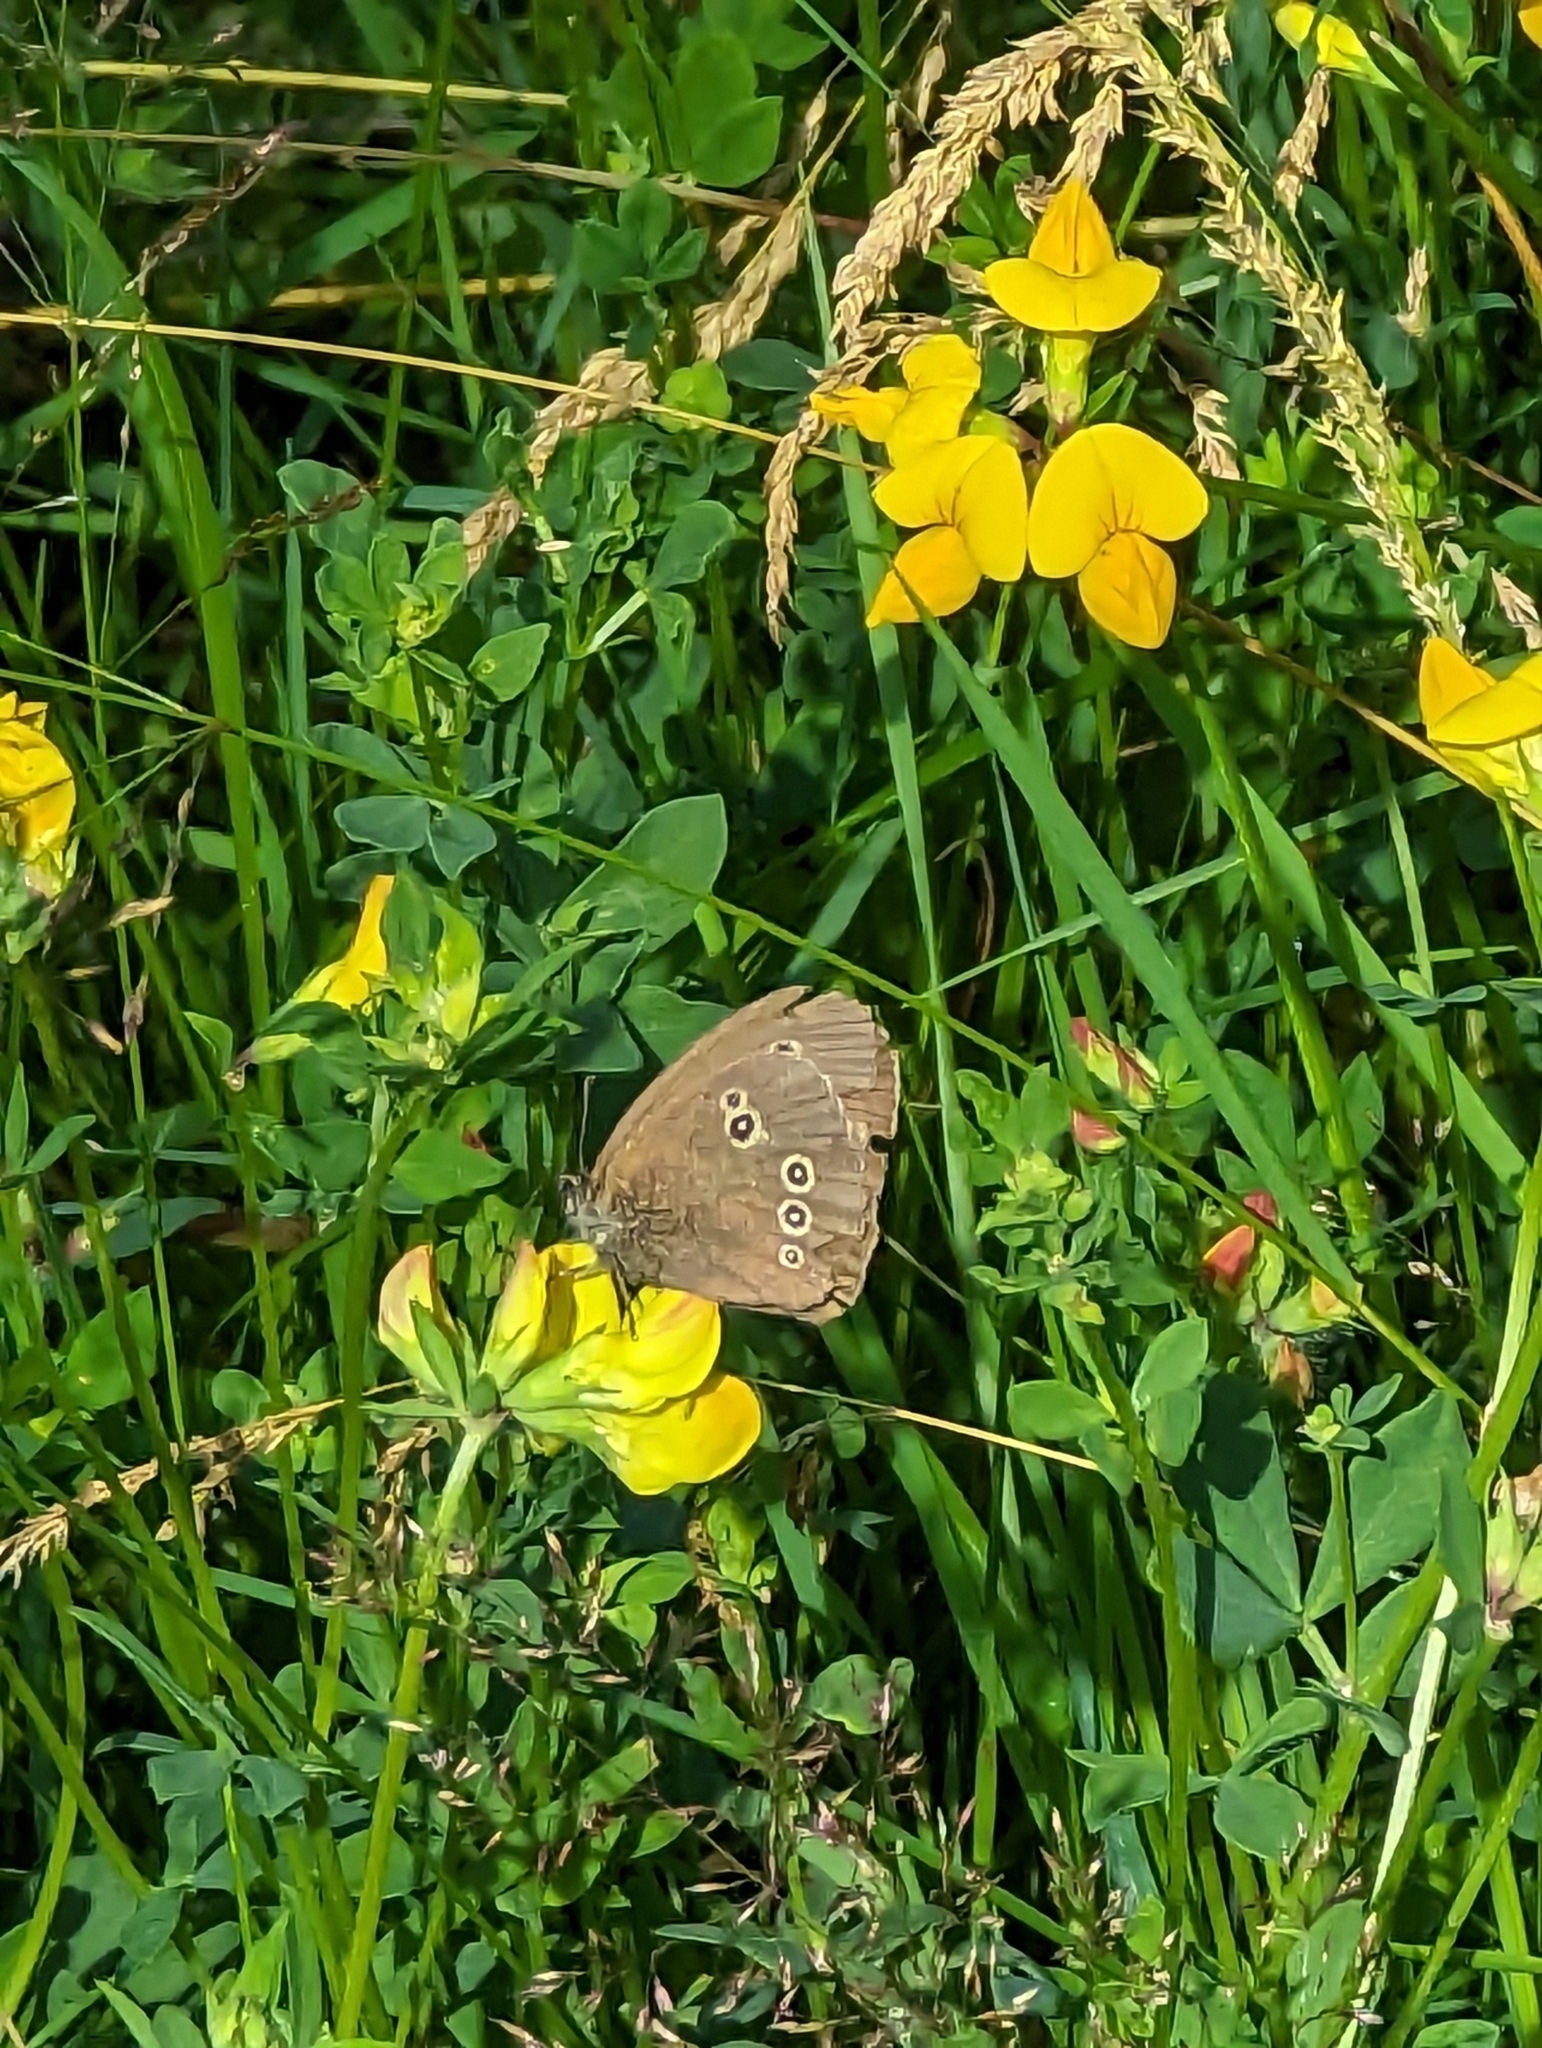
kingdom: Animalia
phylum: Arthropoda
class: Insecta
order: Lepidoptera
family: Nymphalidae
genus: Aphantopus
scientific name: Aphantopus hyperantus
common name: Ringlet
